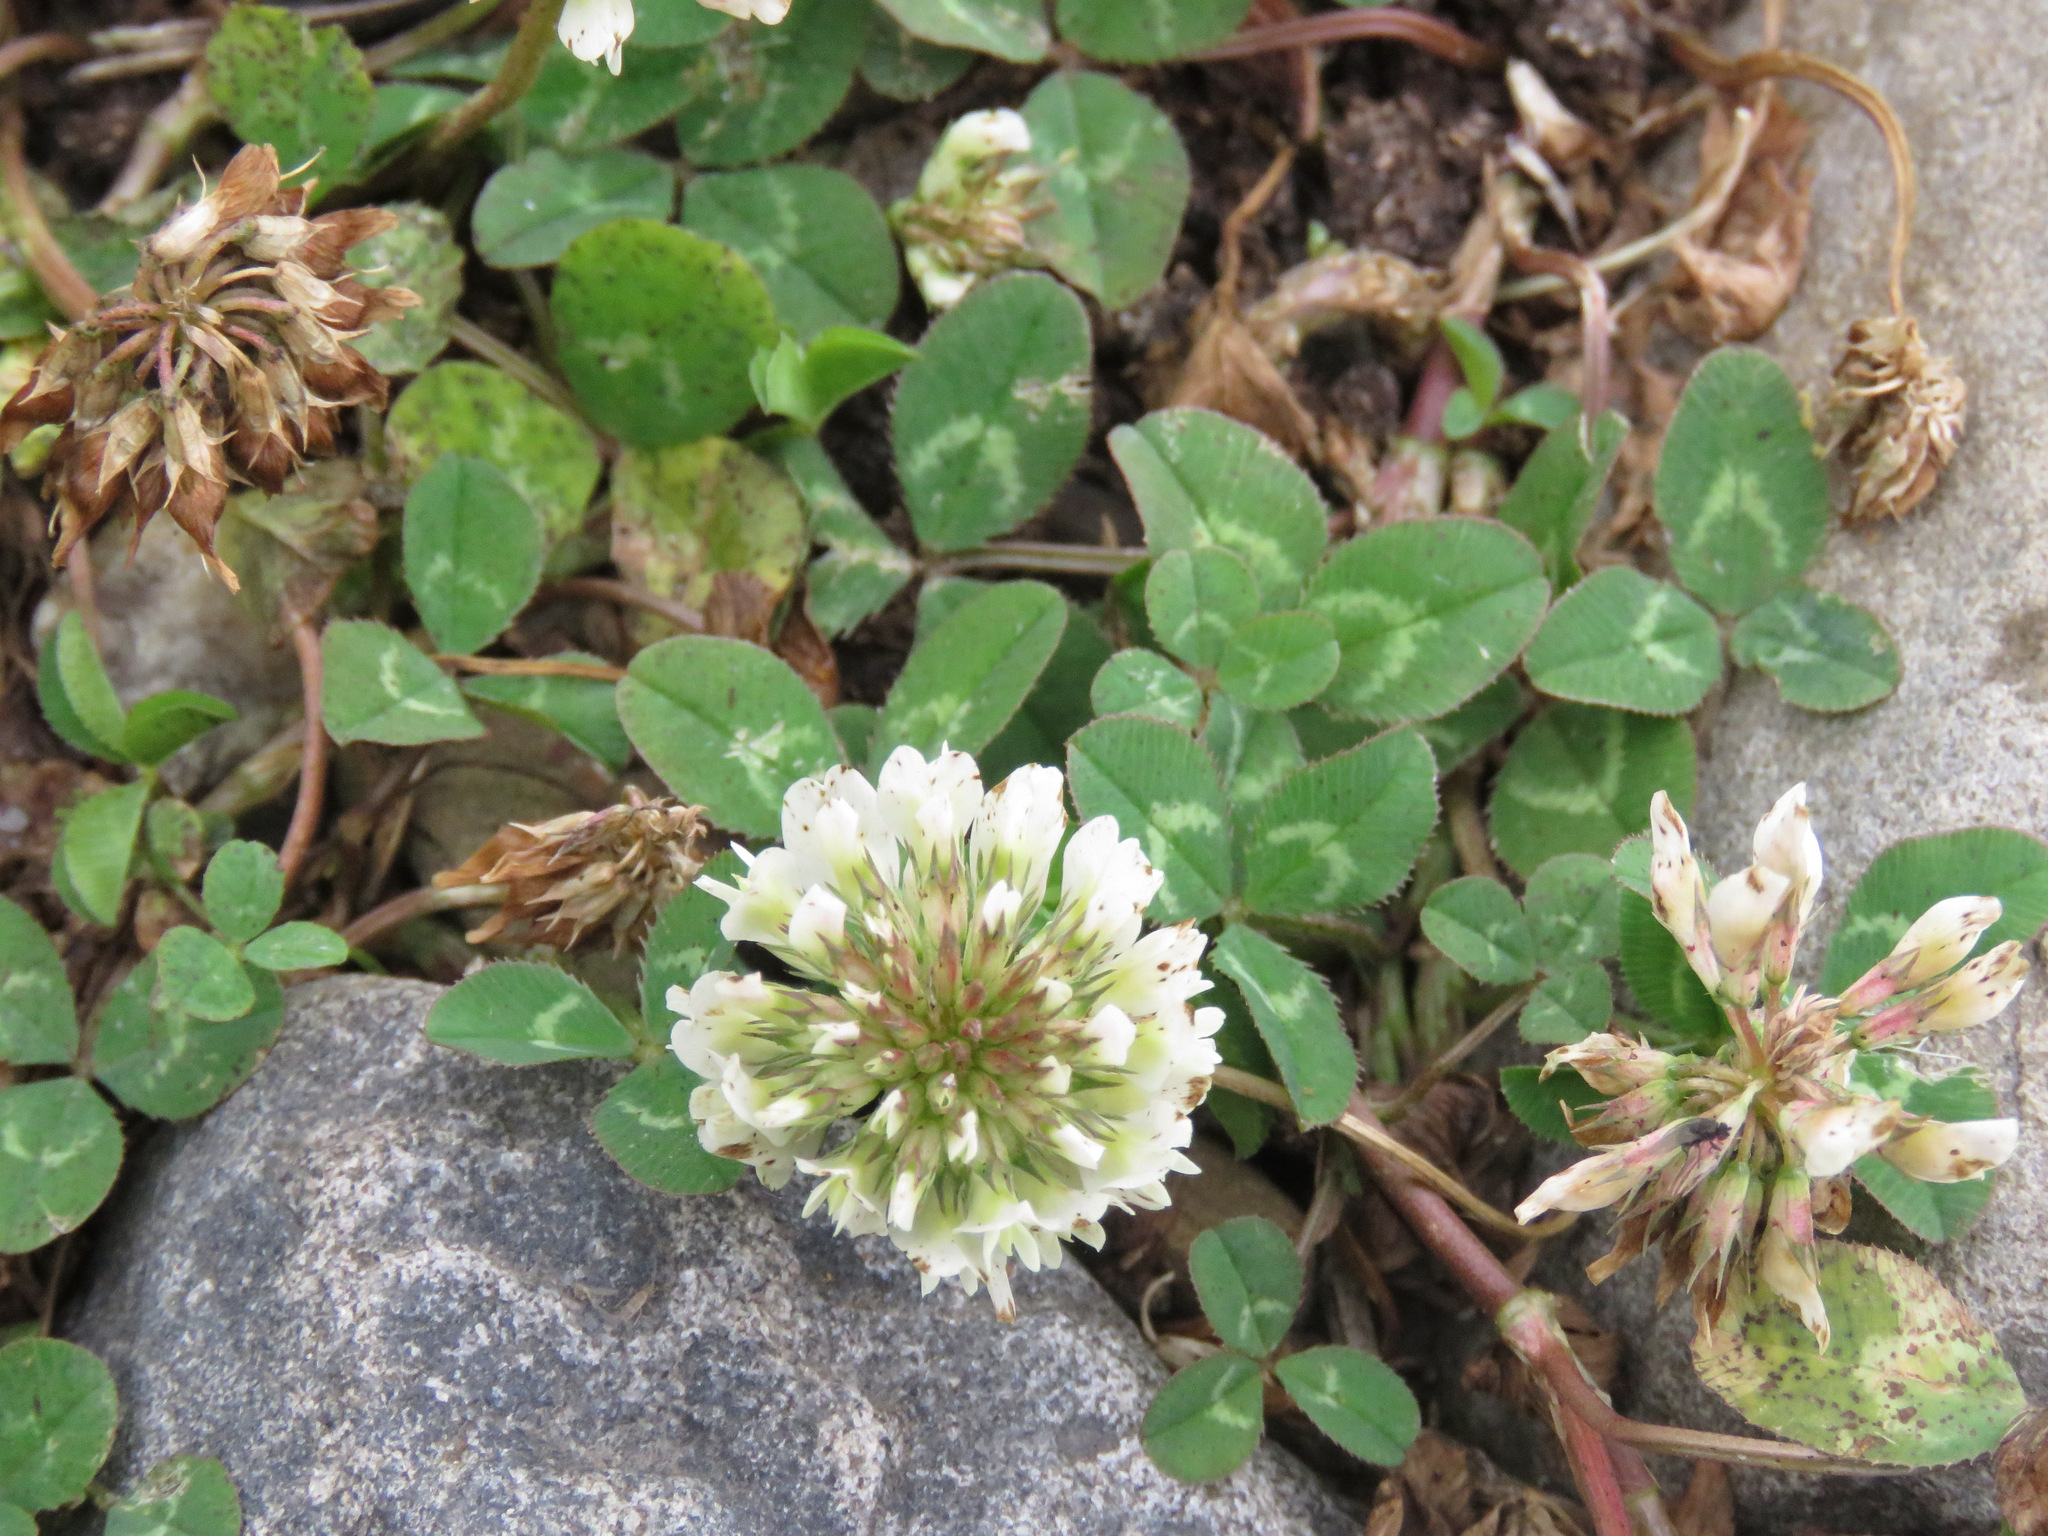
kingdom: Plantae
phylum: Tracheophyta
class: Magnoliopsida
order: Fabales
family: Fabaceae
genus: Trifolium
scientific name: Trifolium repens
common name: White clover
